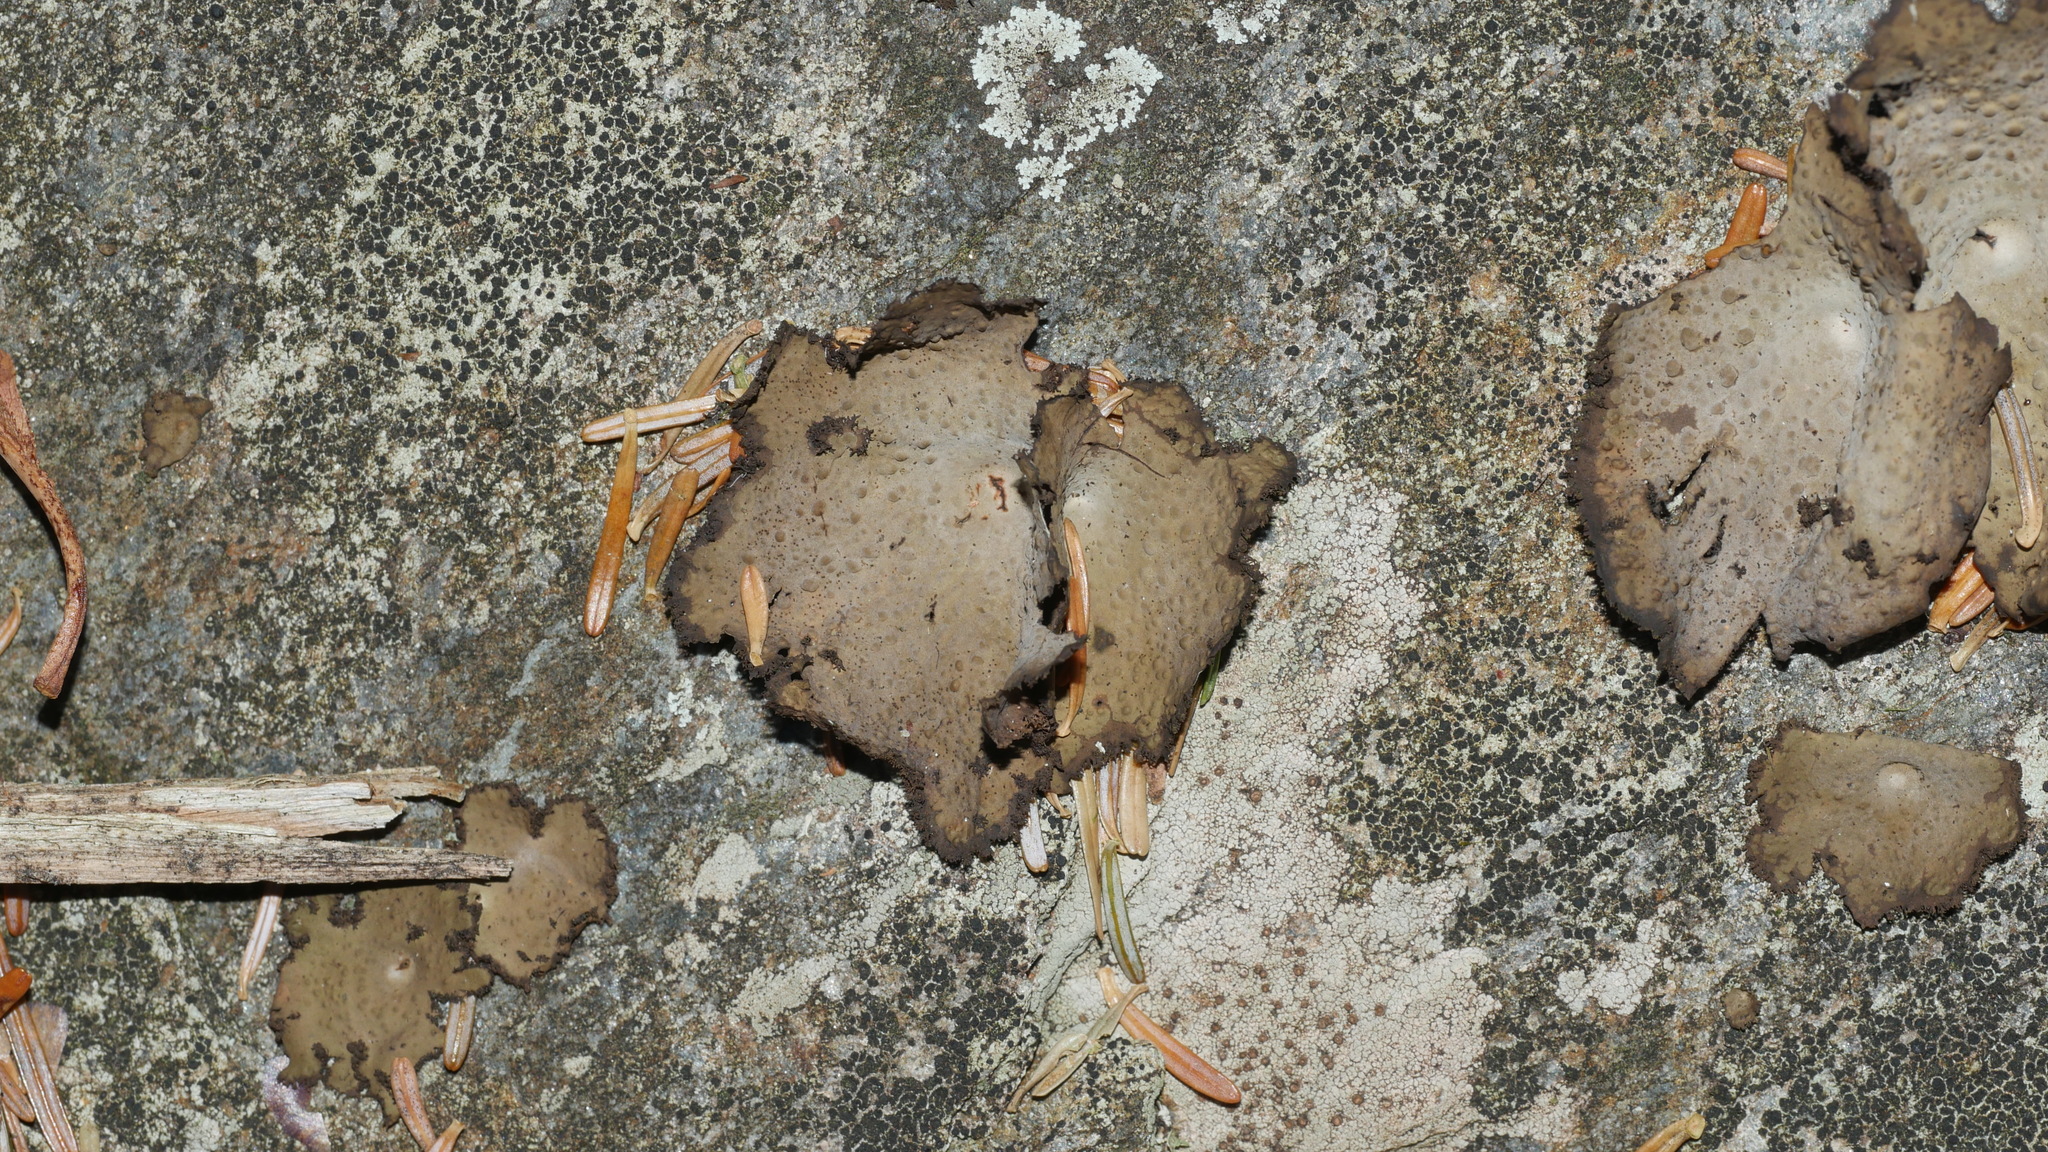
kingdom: Fungi
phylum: Ascomycota
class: Lecanoromycetes
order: Umbilicariales
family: Umbilicariaceae
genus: Lasallia
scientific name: Lasallia pensylvanica
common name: Blackened toadskin lichen
